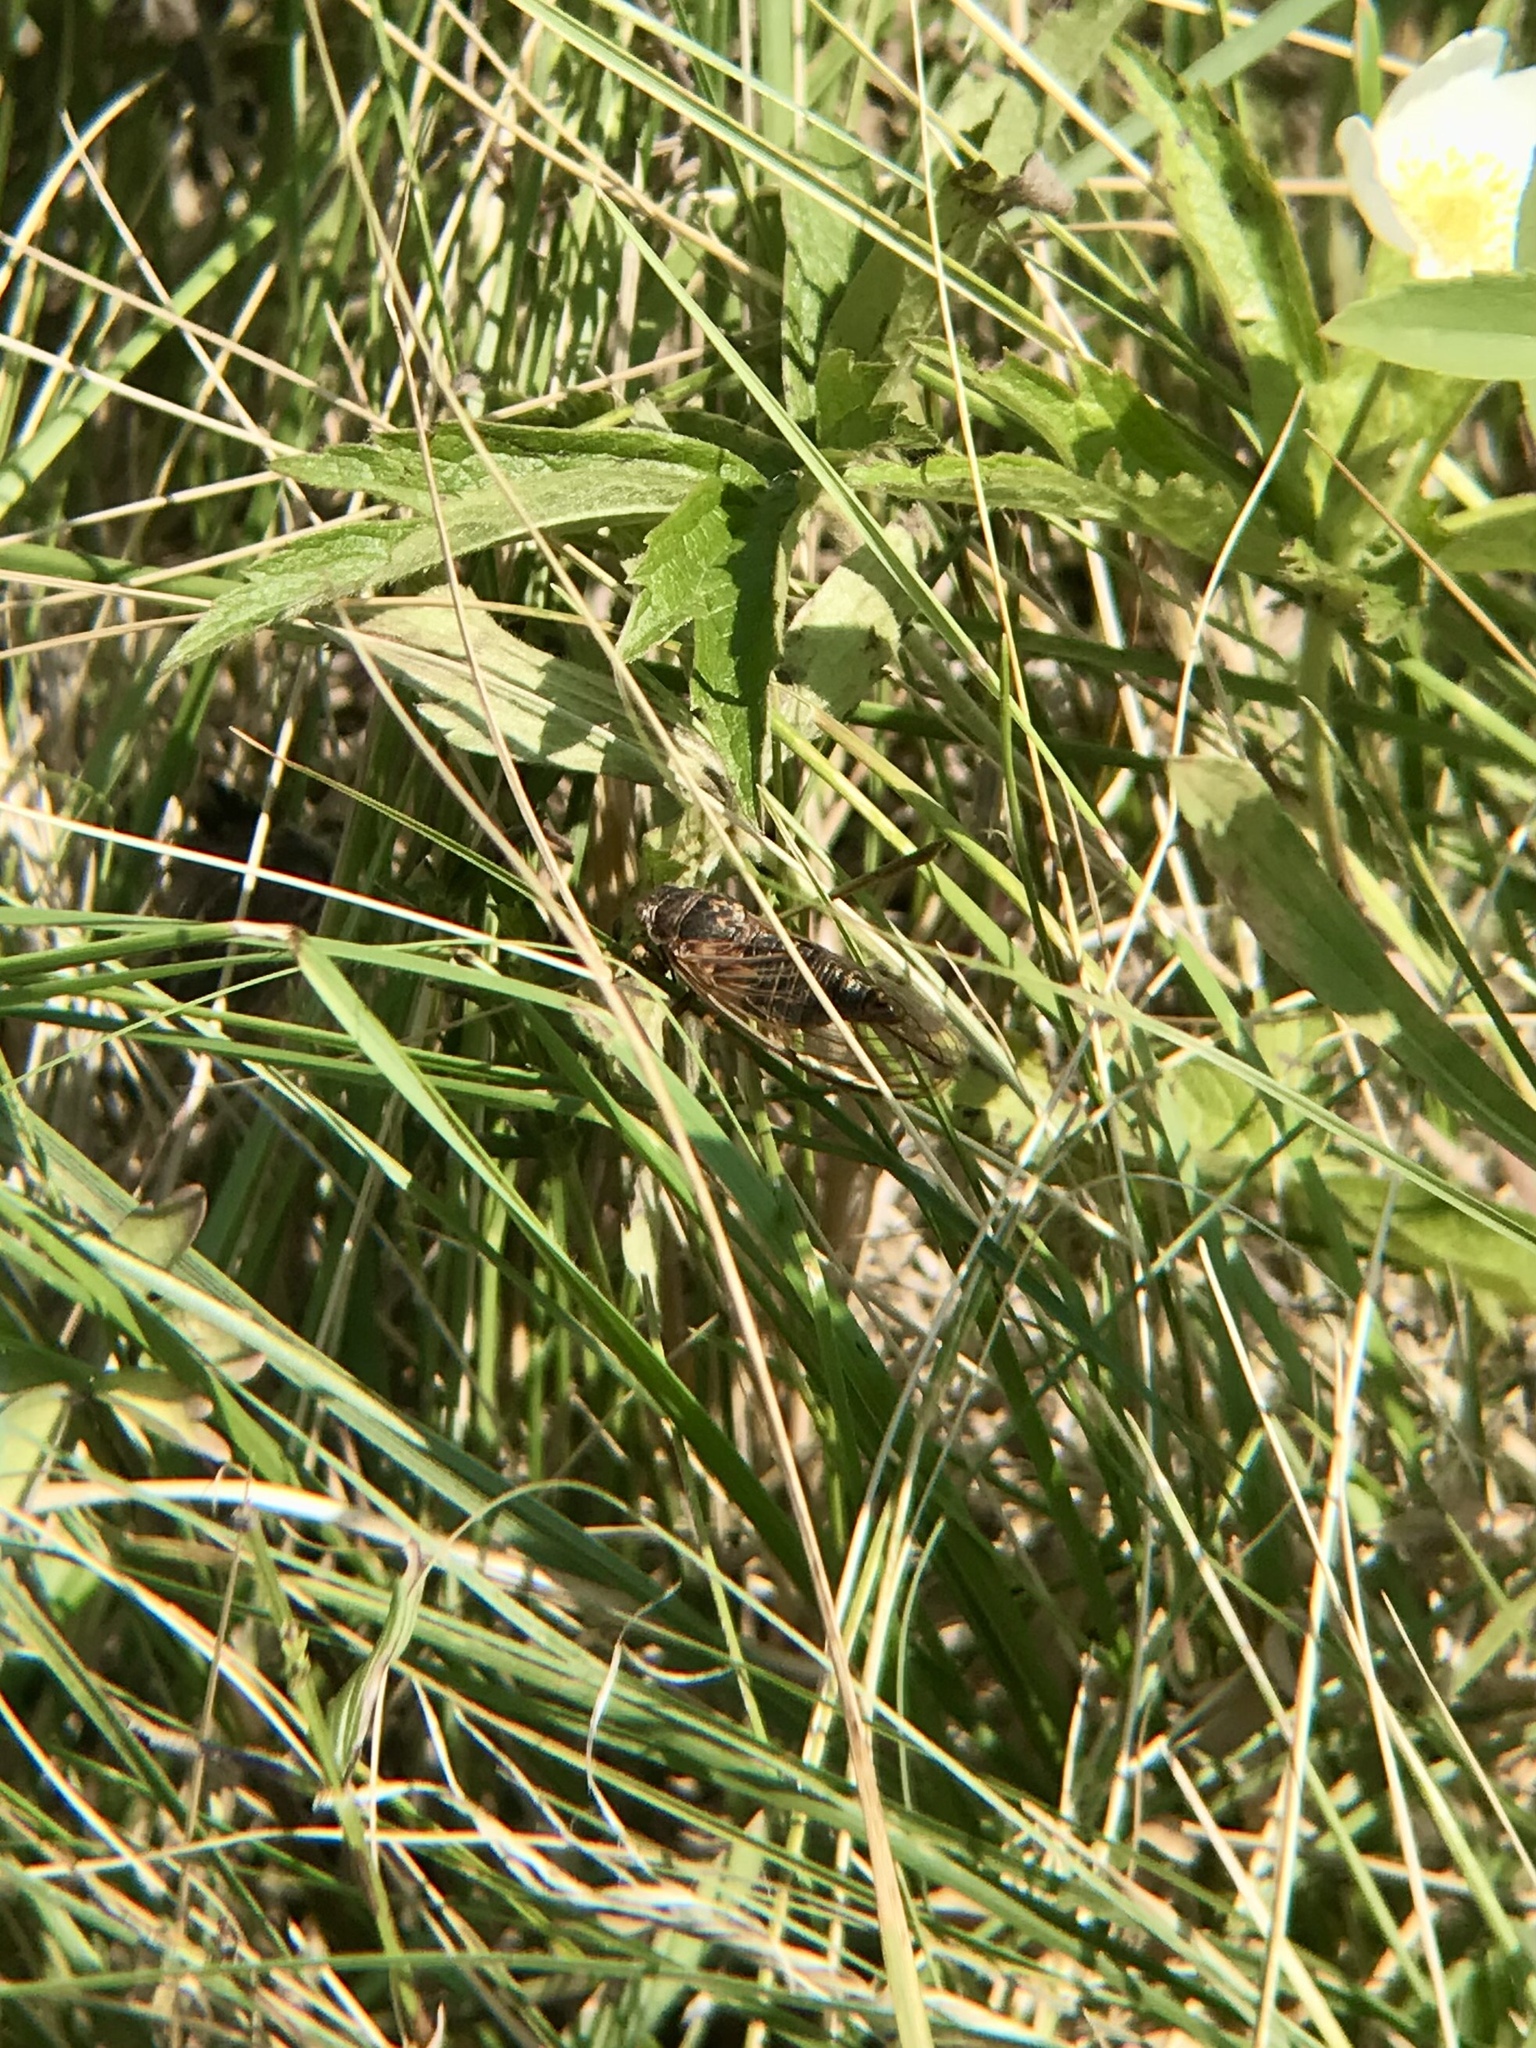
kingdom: Animalia
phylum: Arthropoda
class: Insecta
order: Hemiptera
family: Cicadidae
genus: Okanagana
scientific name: Okanagana balli
